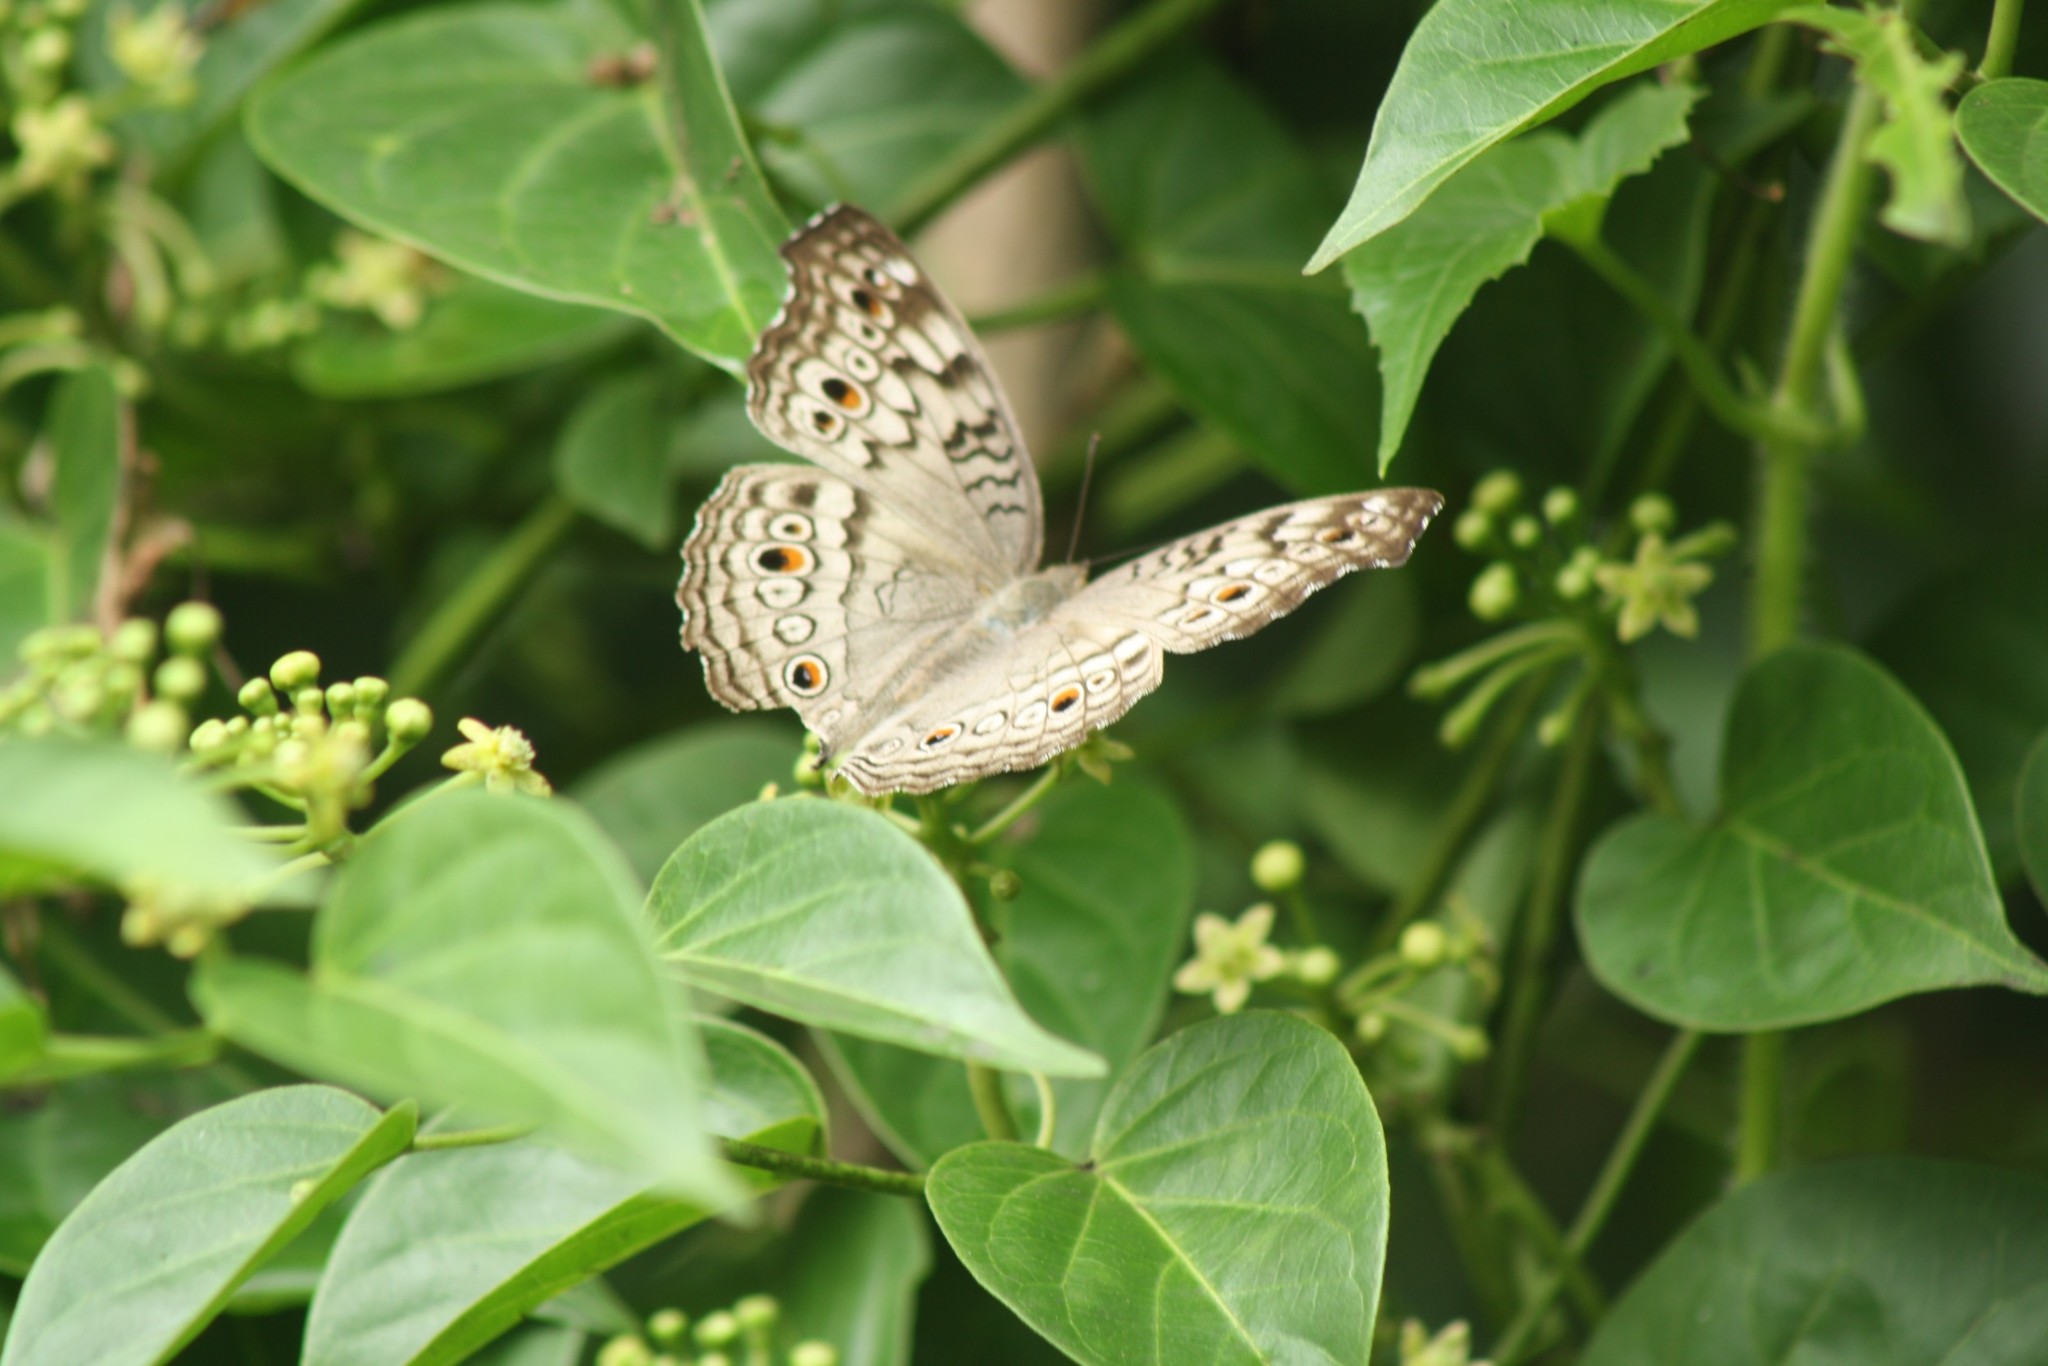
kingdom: Animalia
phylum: Arthropoda
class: Insecta
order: Lepidoptera
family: Nymphalidae
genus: Junonia
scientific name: Junonia atlites
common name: Grey pansy
